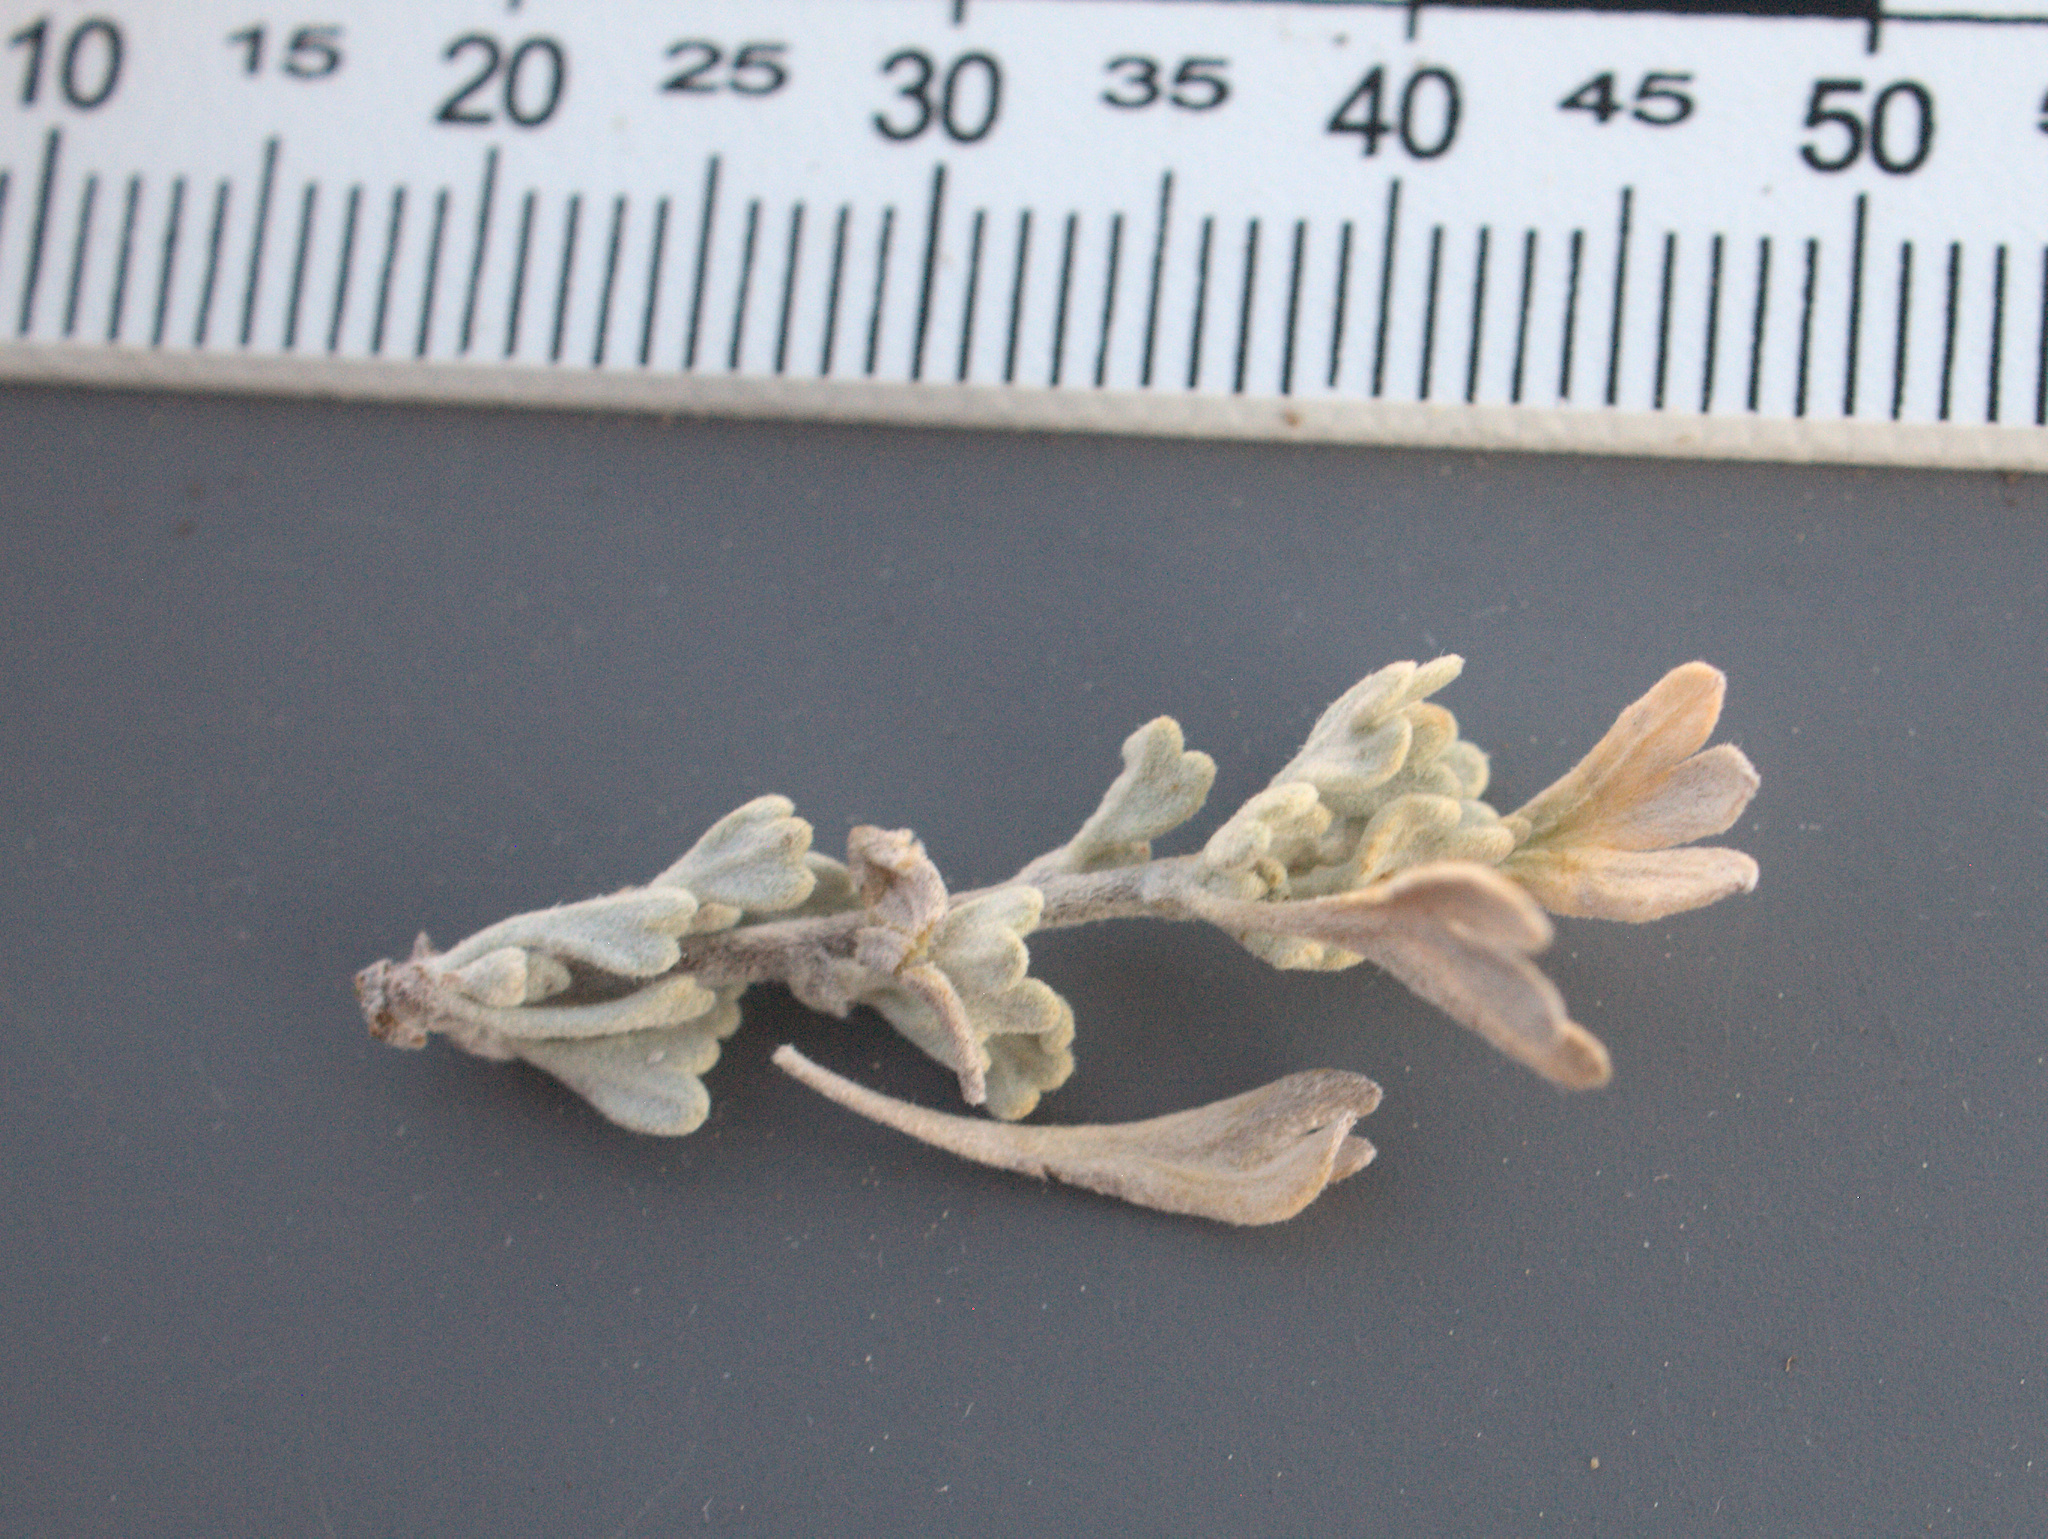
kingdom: Plantae
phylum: Tracheophyta
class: Magnoliopsida
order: Asterales
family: Asteraceae
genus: Artemisia
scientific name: Artemisia arbuscula
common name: Sagebrush
